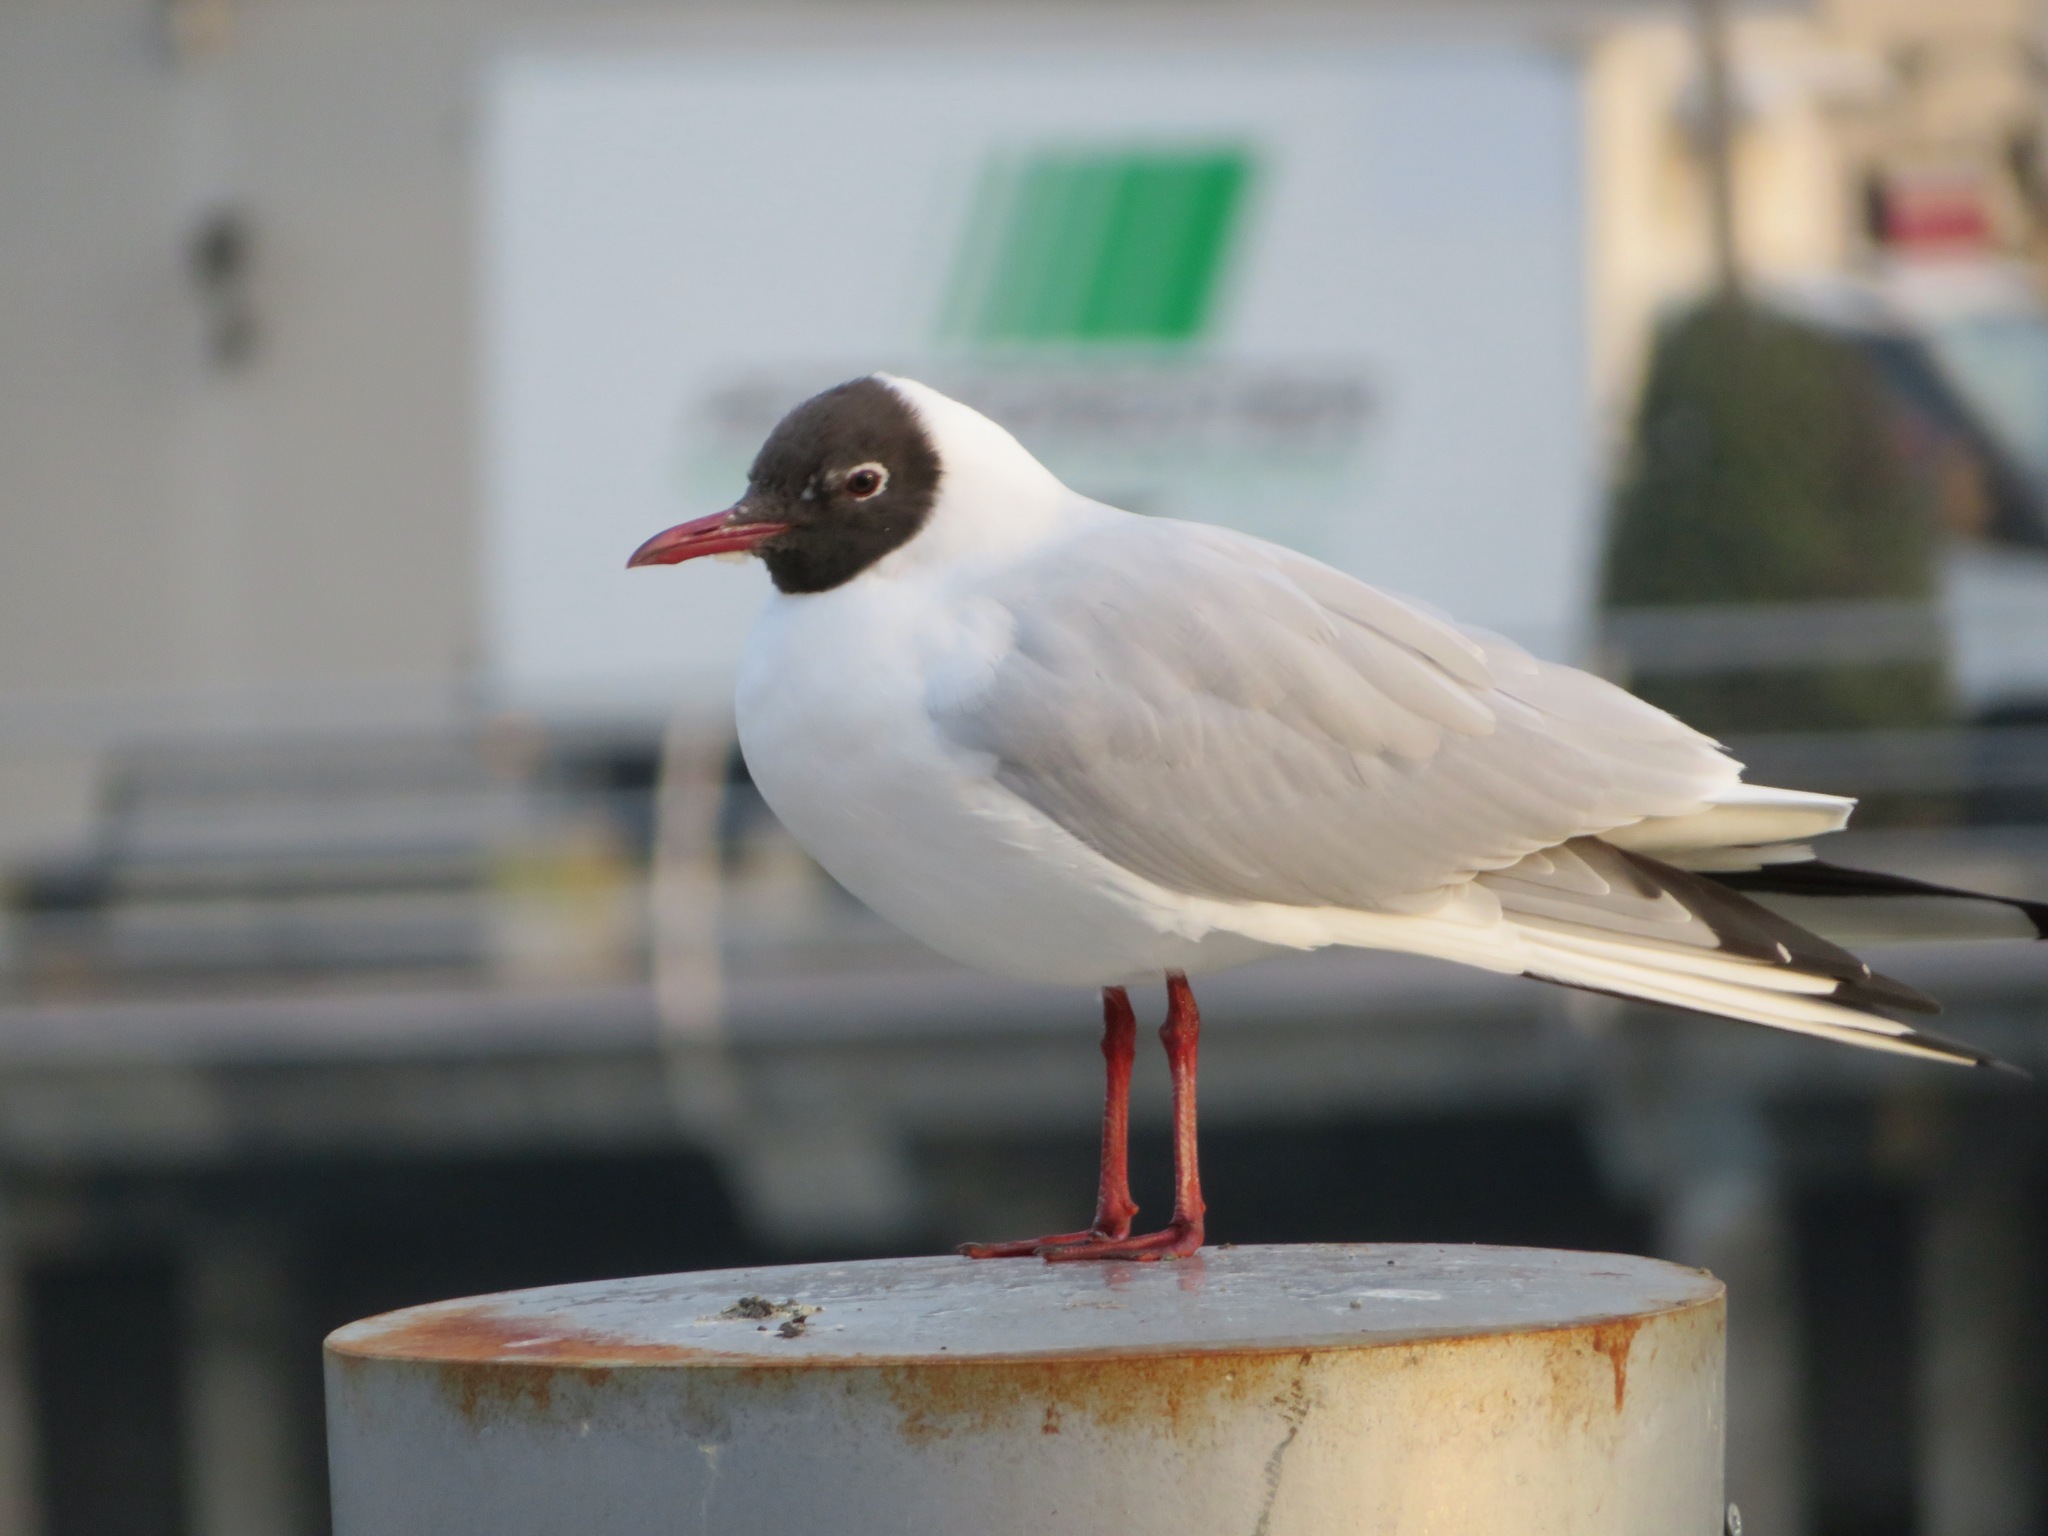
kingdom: Animalia
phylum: Chordata
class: Aves
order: Charadriiformes
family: Laridae
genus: Chroicocephalus
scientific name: Chroicocephalus ridibundus
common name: Black-headed gull
